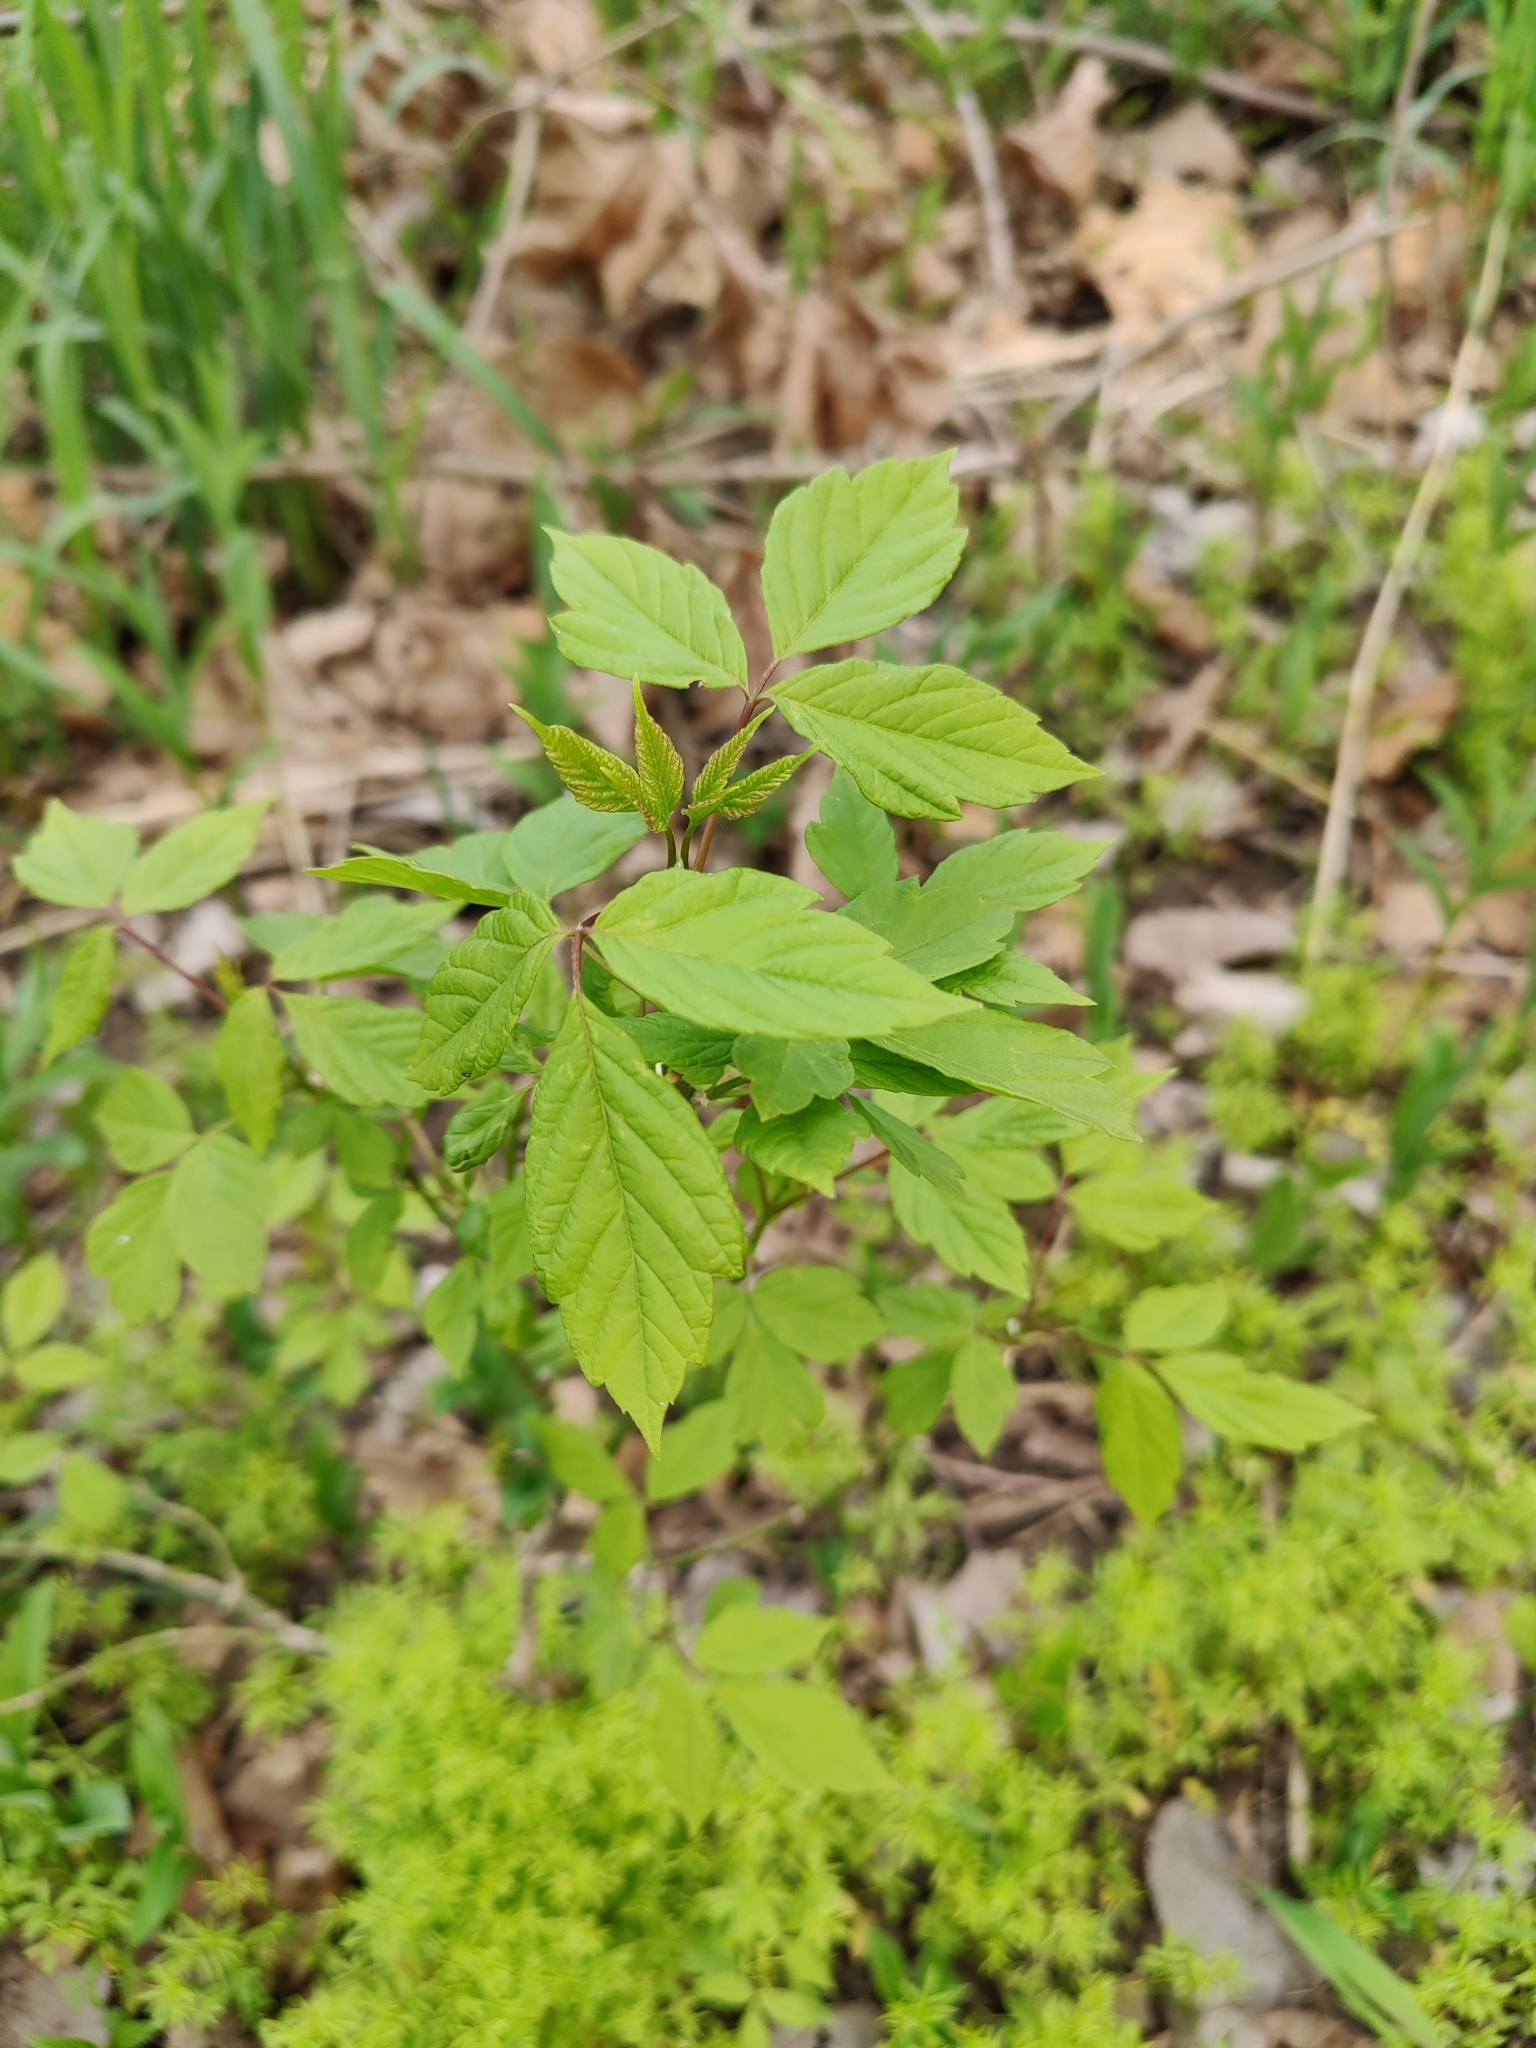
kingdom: Plantae
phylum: Tracheophyta
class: Magnoliopsida
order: Sapindales
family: Sapindaceae
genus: Acer
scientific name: Acer negundo
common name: Ashleaf maple
